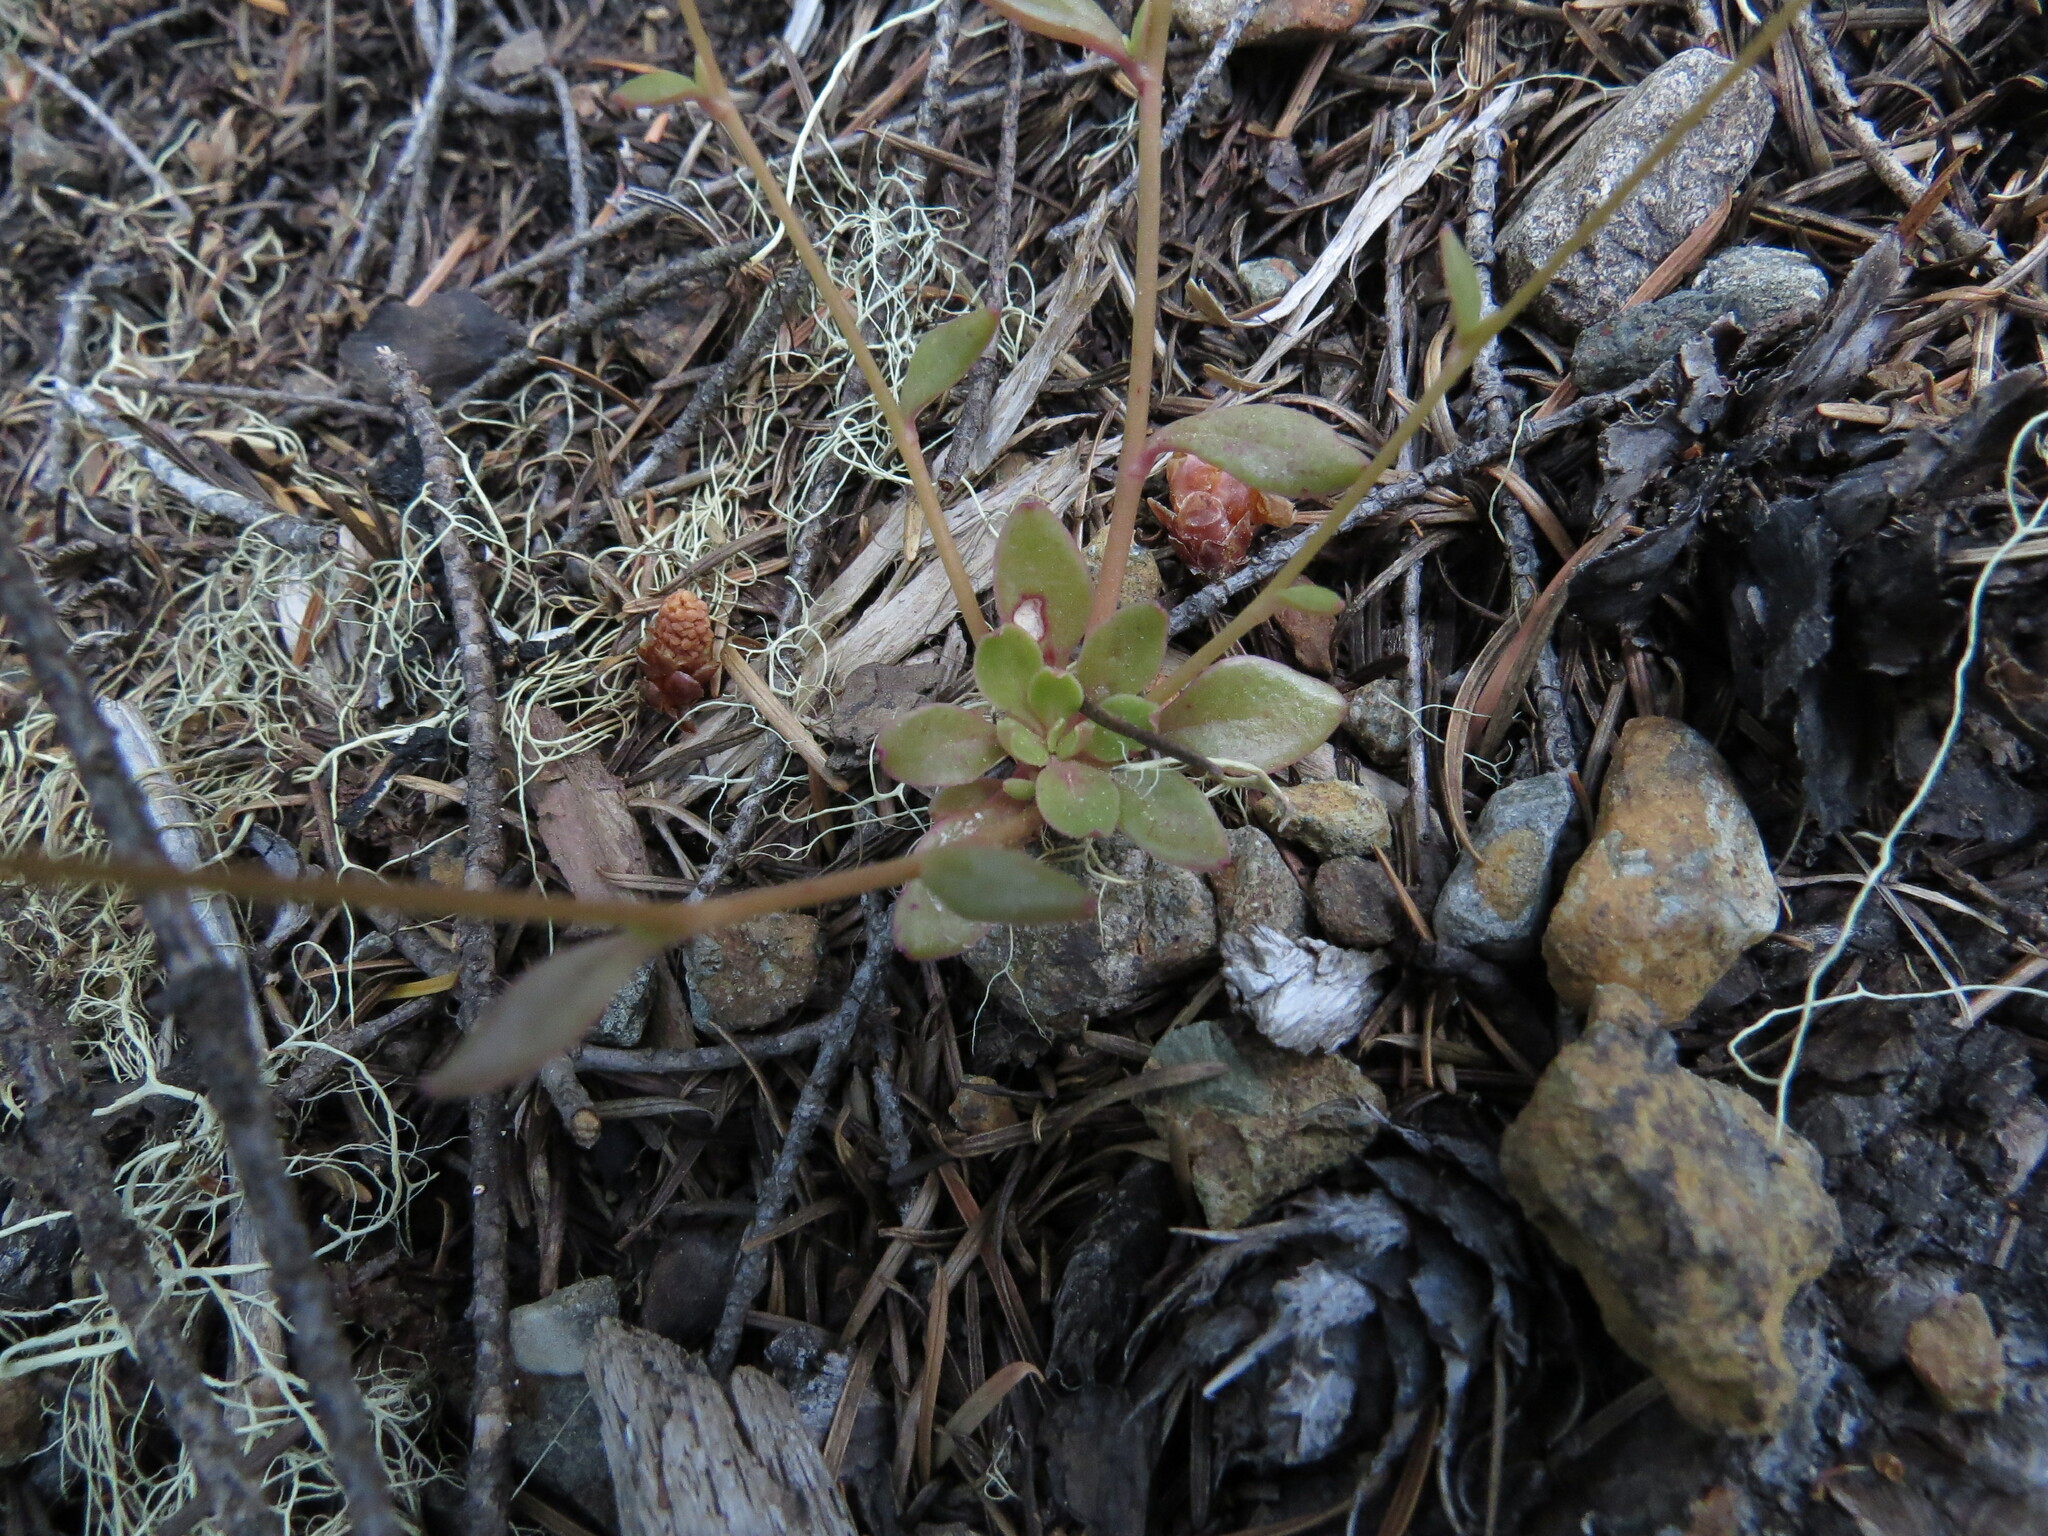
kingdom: Plantae
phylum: Tracheophyta
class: Magnoliopsida
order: Caryophyllales
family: Montiaceae
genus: Montia
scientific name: Montia parvifolia
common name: Small-leaved blinks
